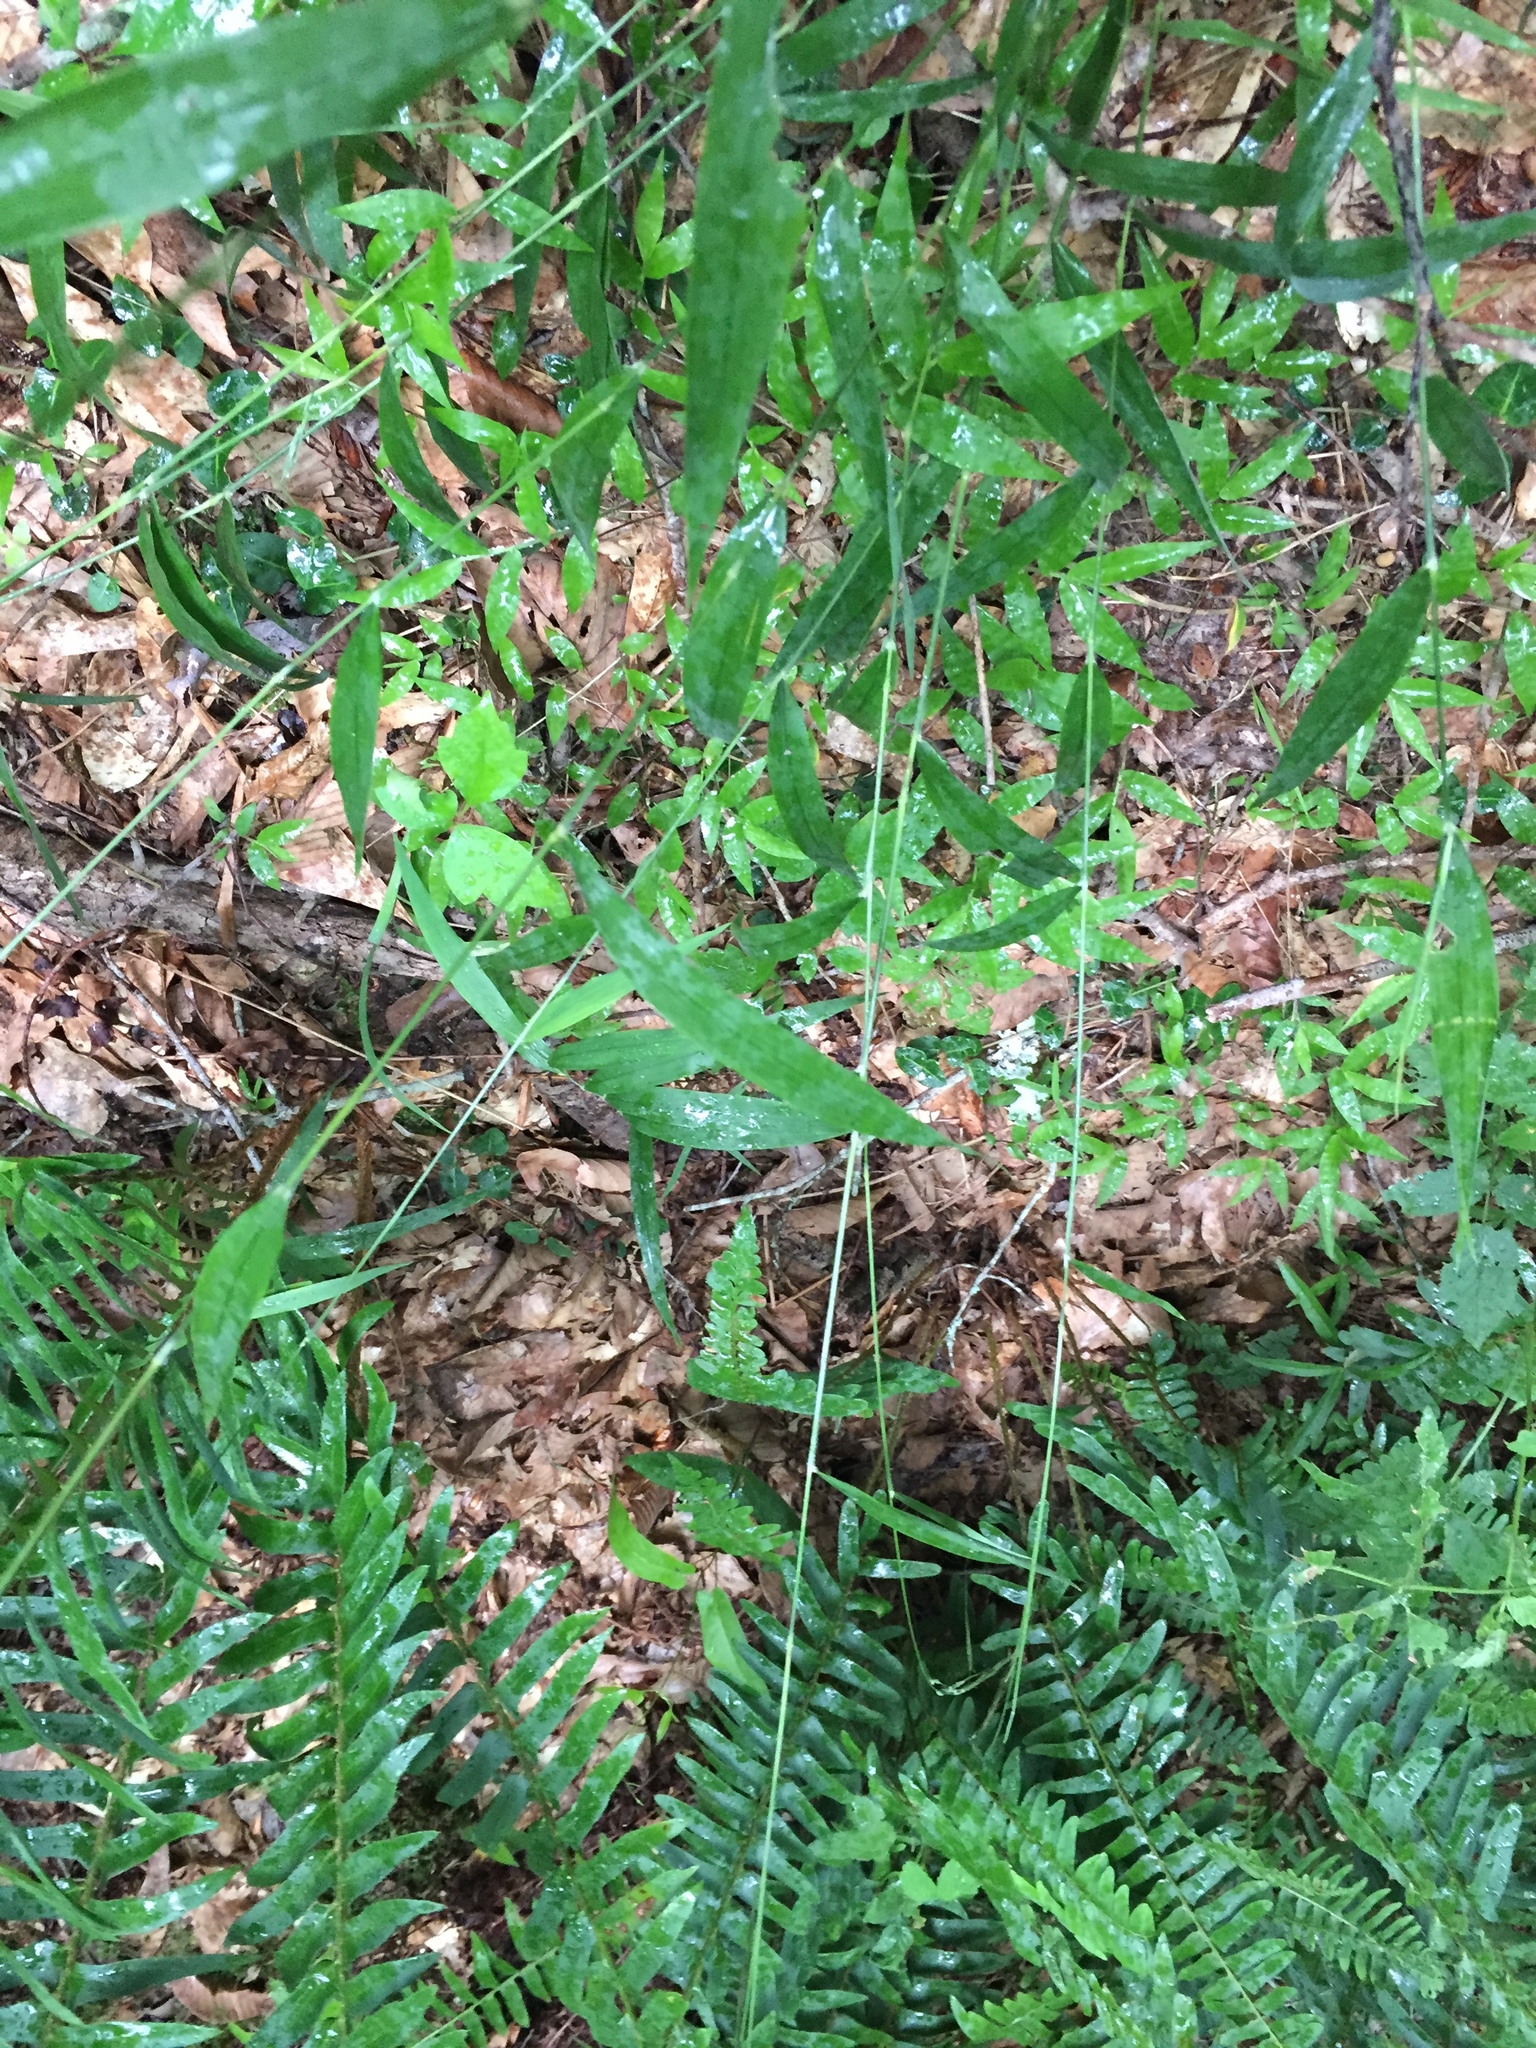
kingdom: Plantae
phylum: Tracheophyta
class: Liliopsida
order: Poales
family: Poaceae
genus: Brachyelytrum
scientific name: Brachyelytrum erectum
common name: Bearded shorthusk
